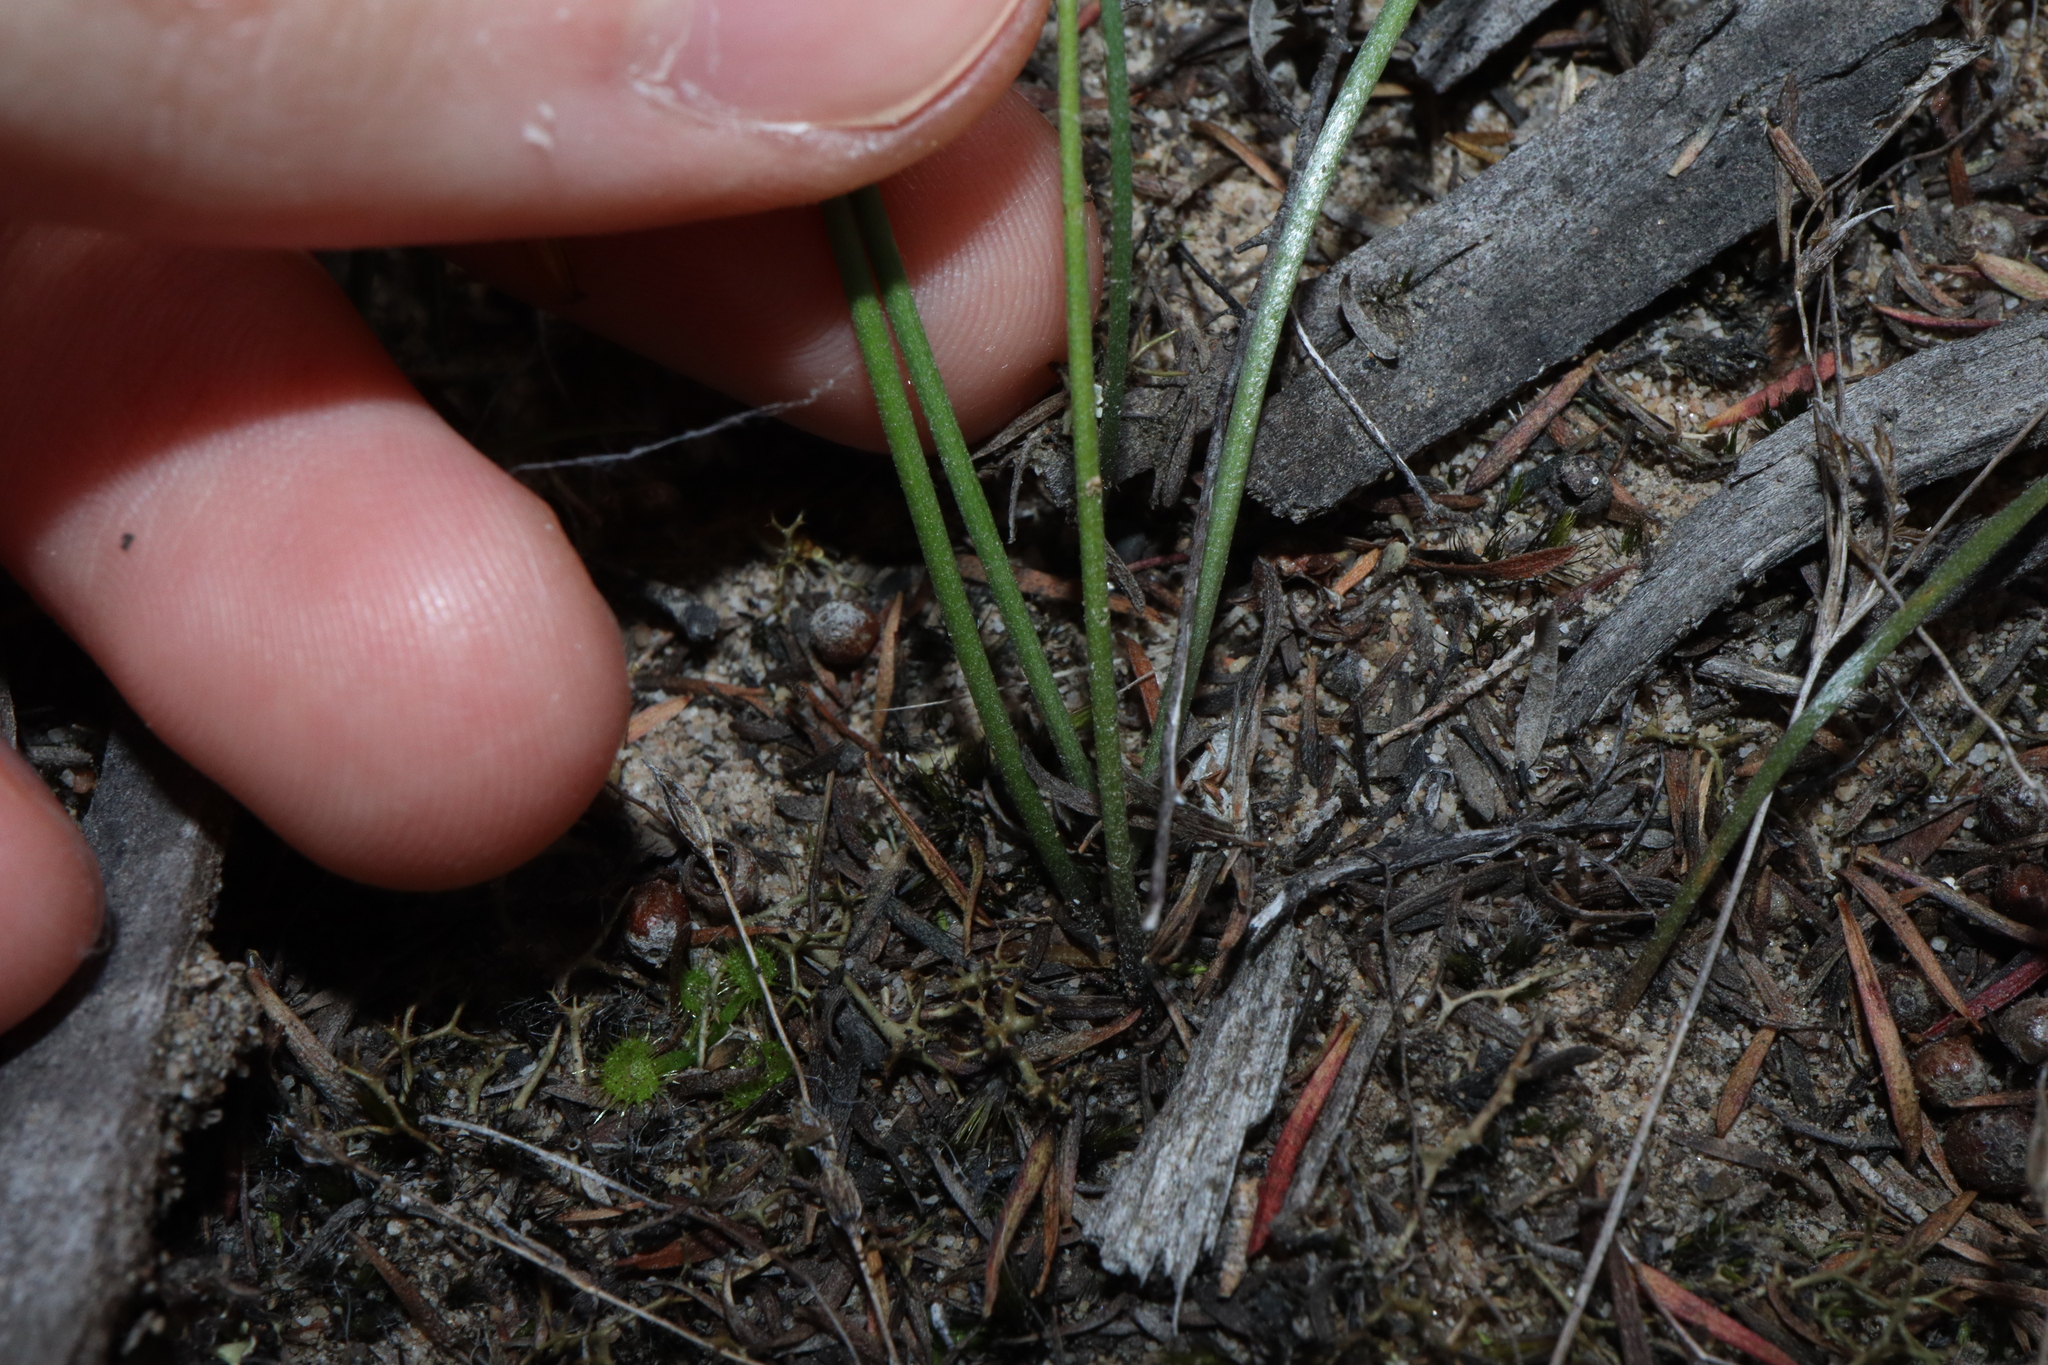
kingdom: Plantae
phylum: Tracheophyta
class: Liliopsida
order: Asparagales
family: Orchidaceae
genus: Genoplesium
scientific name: Genoplesium rufum
